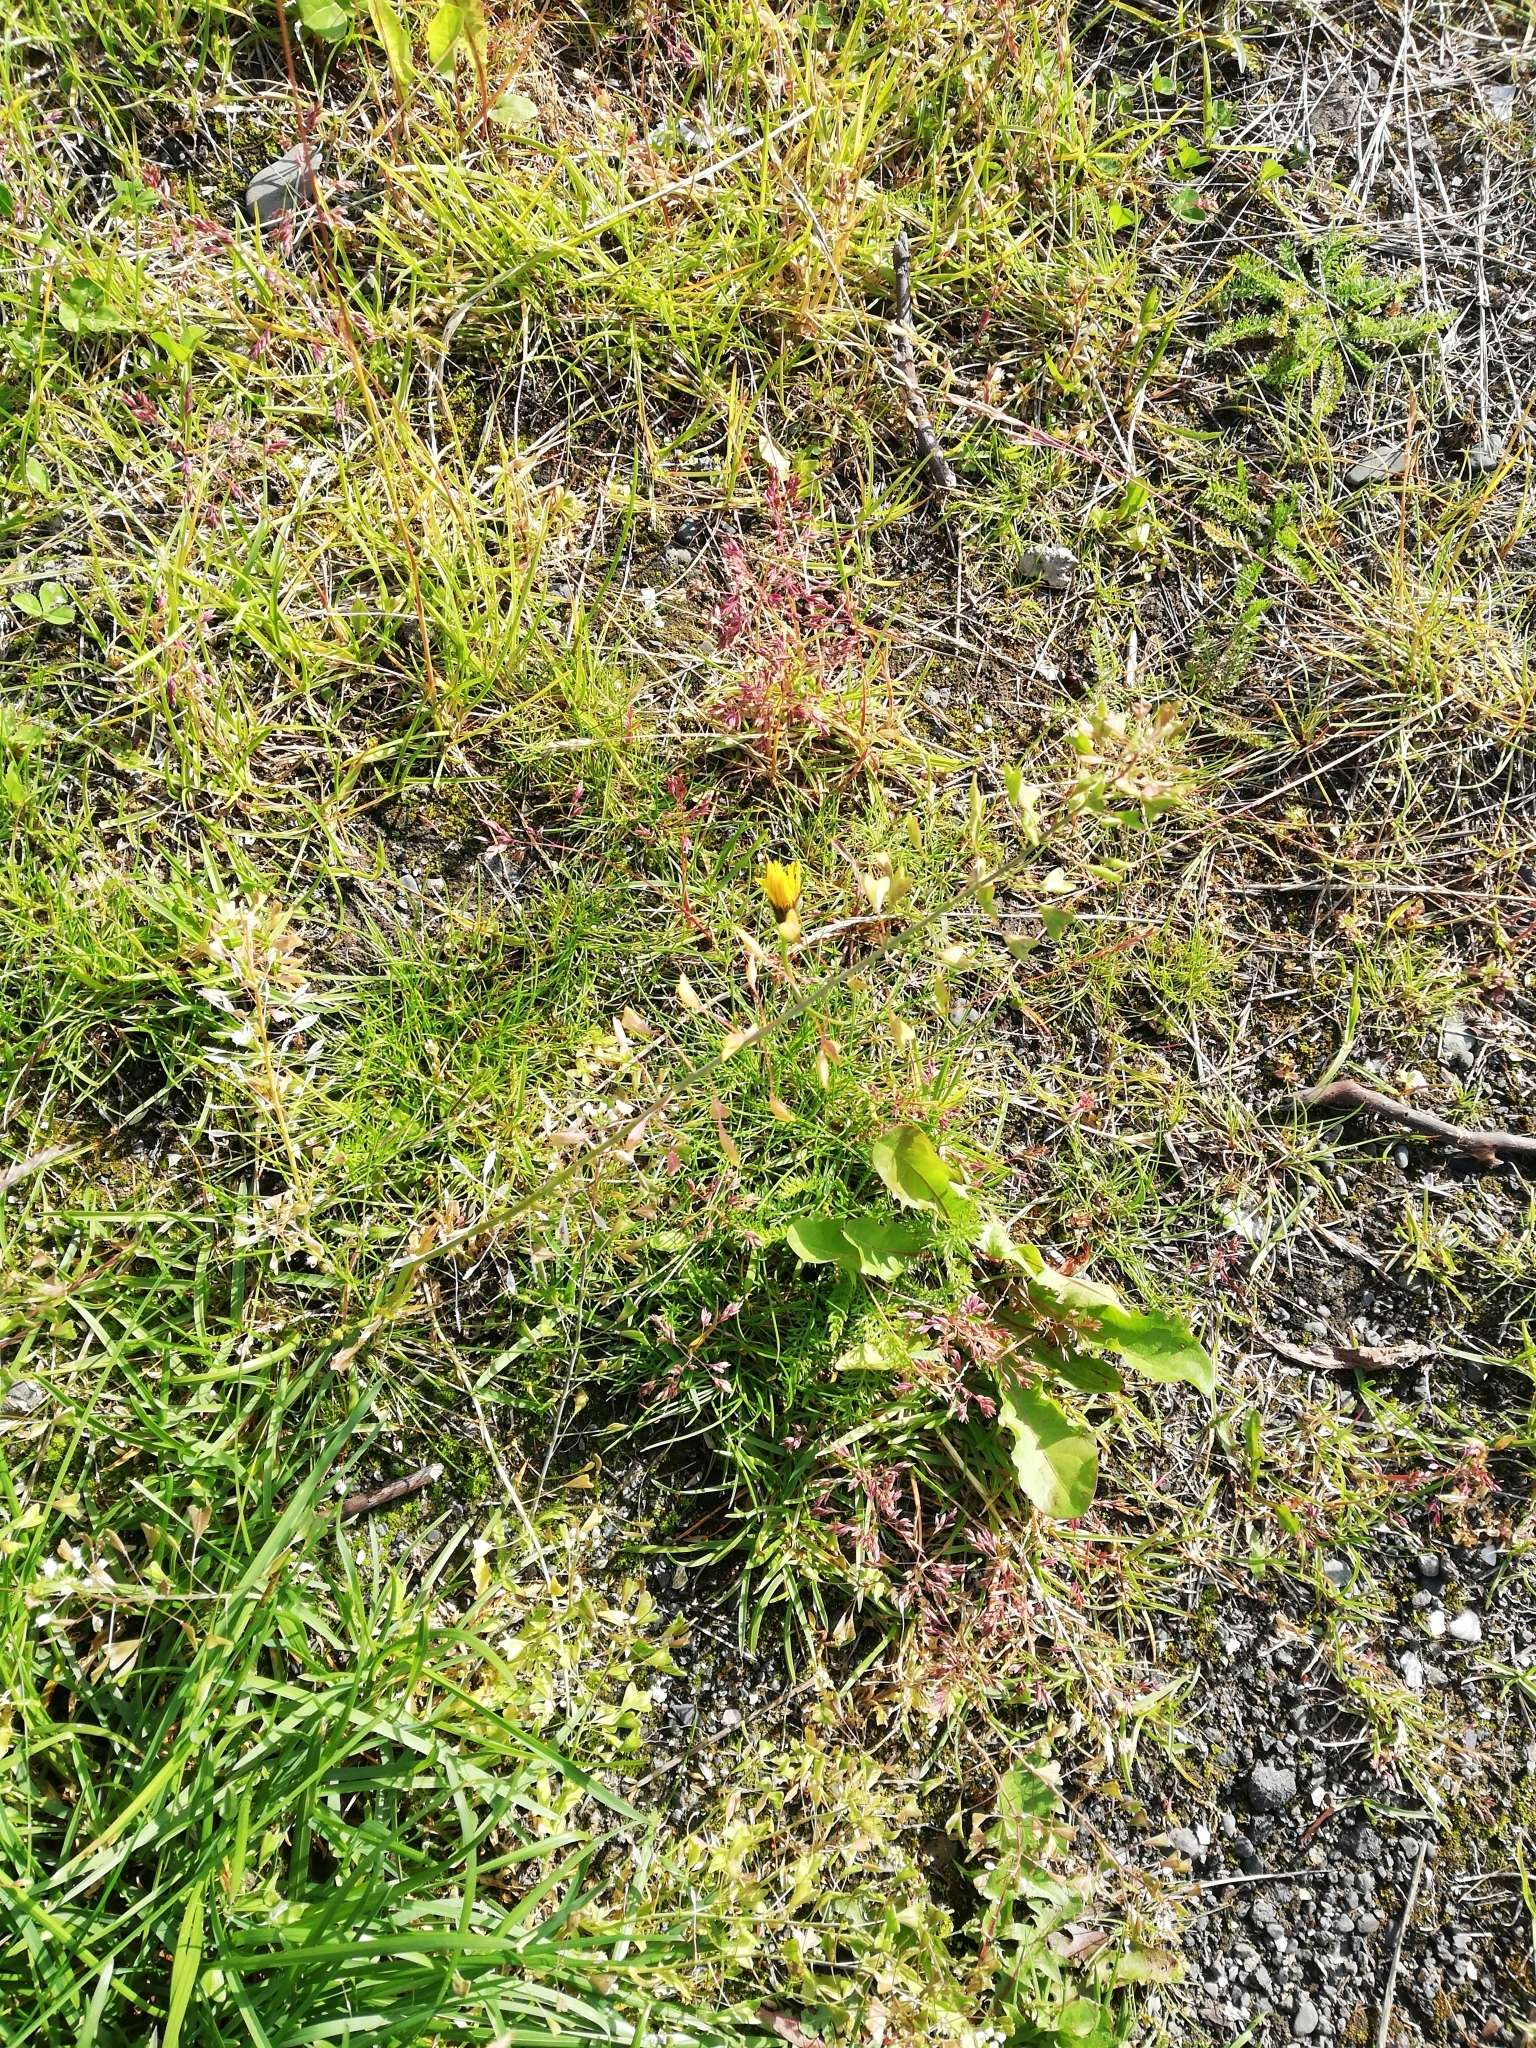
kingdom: Plantae
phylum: Tracheophyta
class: Magnoliopsida
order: Brassicales
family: Brassicaceae
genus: Capsella
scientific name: Capsella bursa-pastoris
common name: Shepherd's purse
